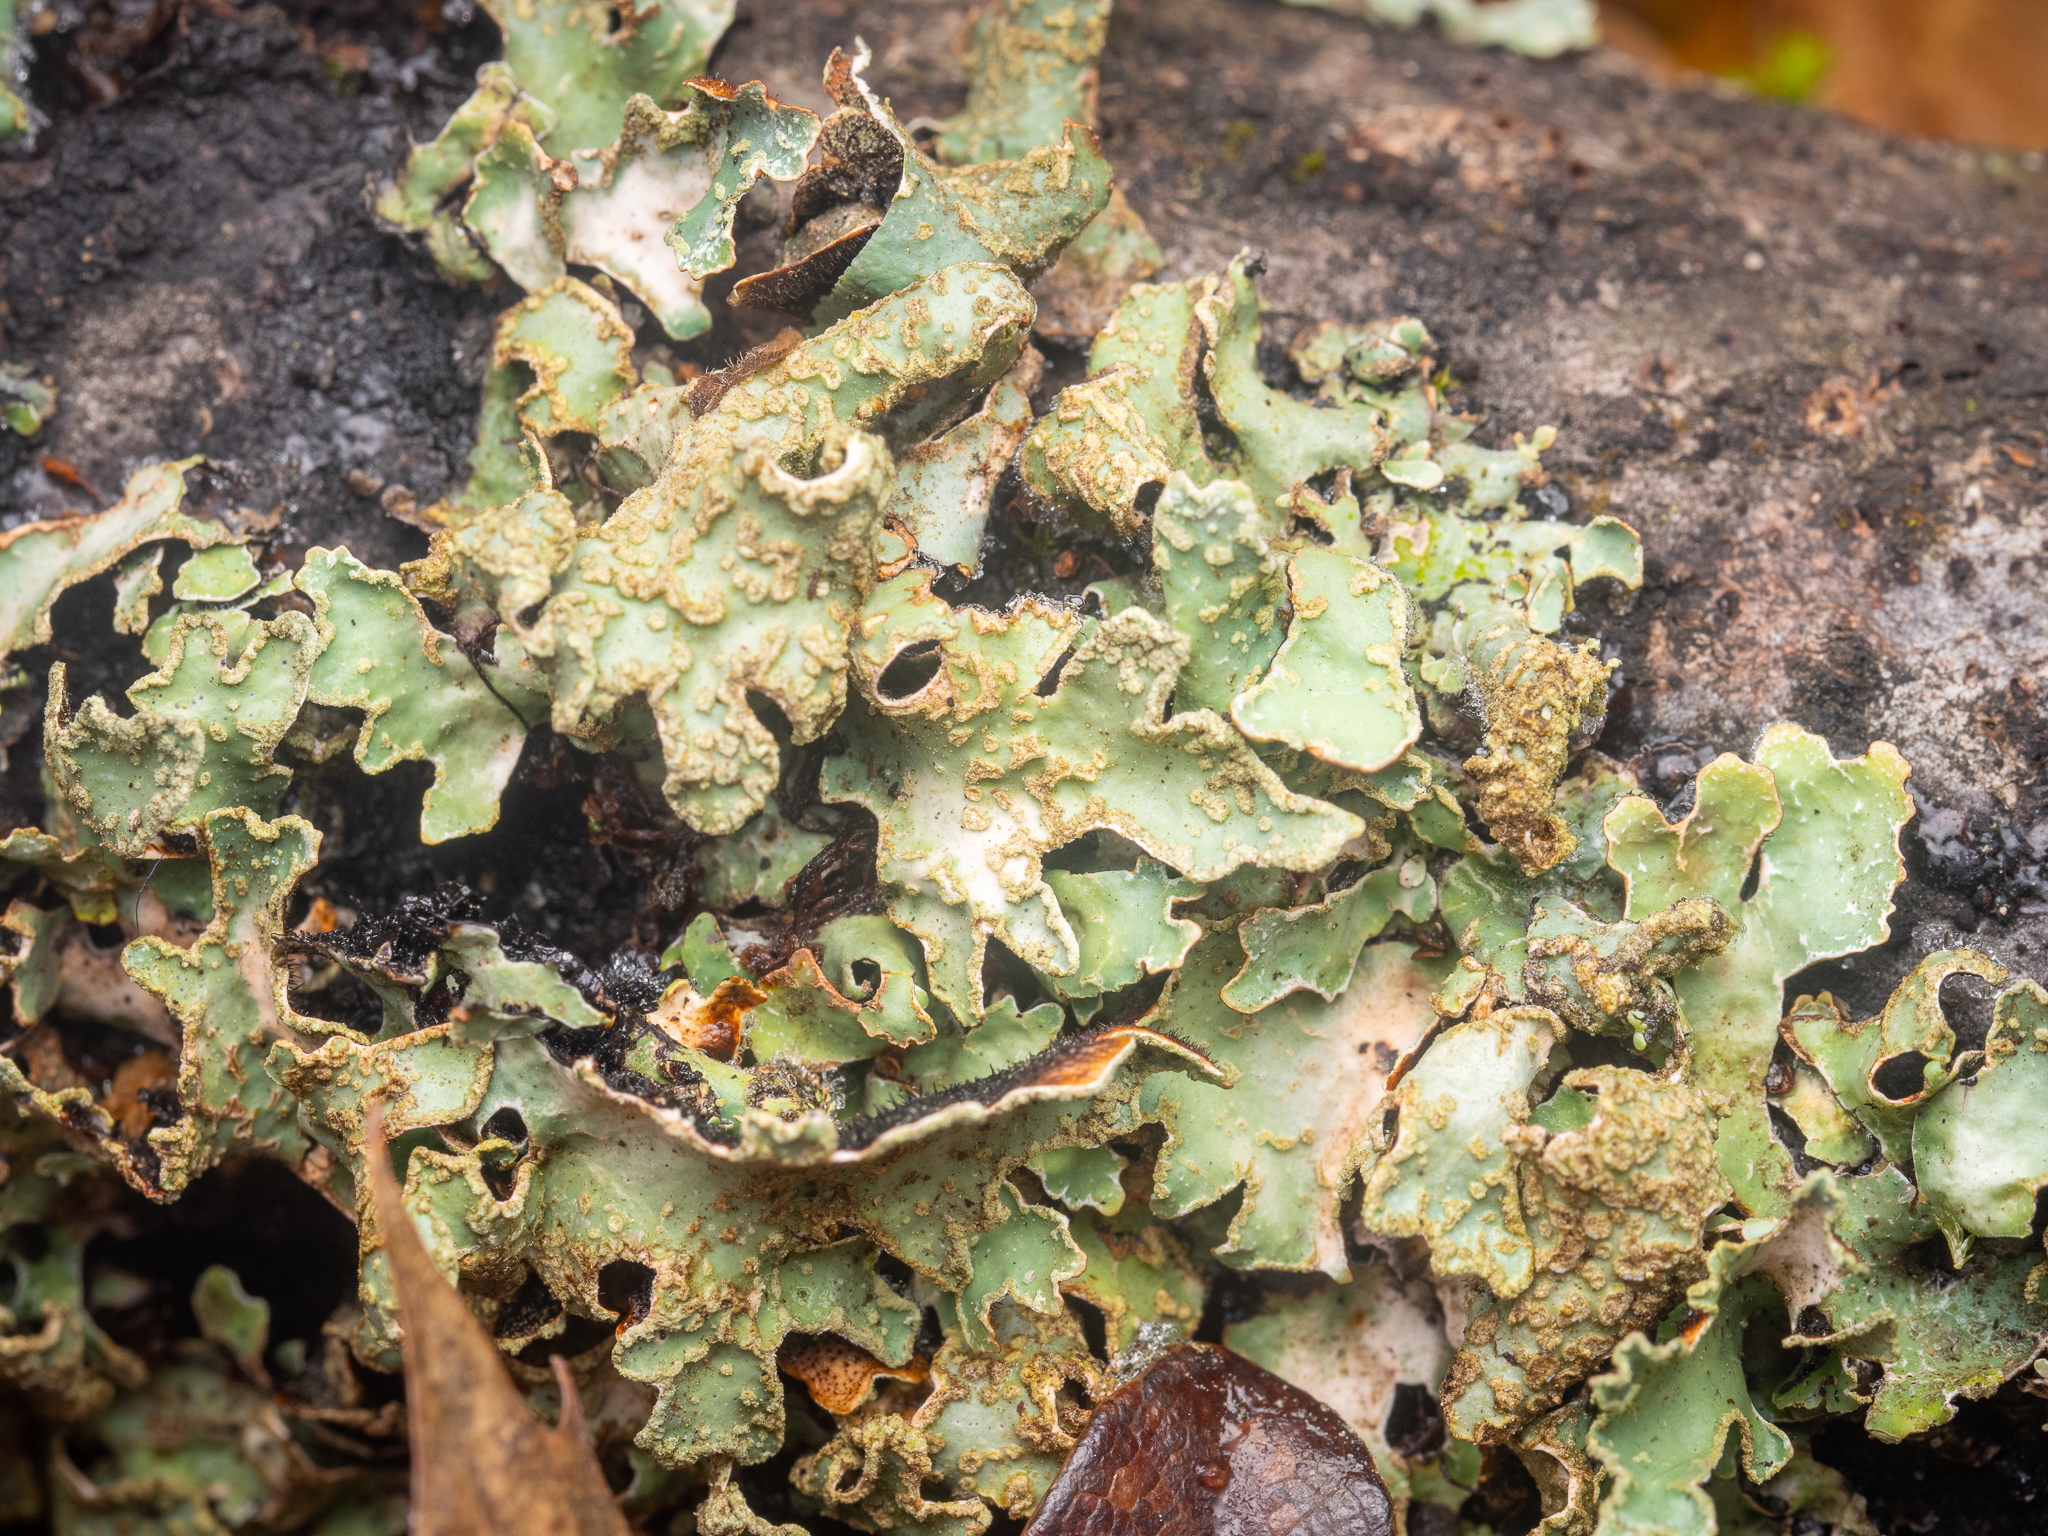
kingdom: Fungi
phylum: Ascomycota
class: Lecanoromycetes
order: Lecanorales
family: Parmeliaceae
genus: Parmelia
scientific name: Parmelia sulcata
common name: Netted shield lichen
